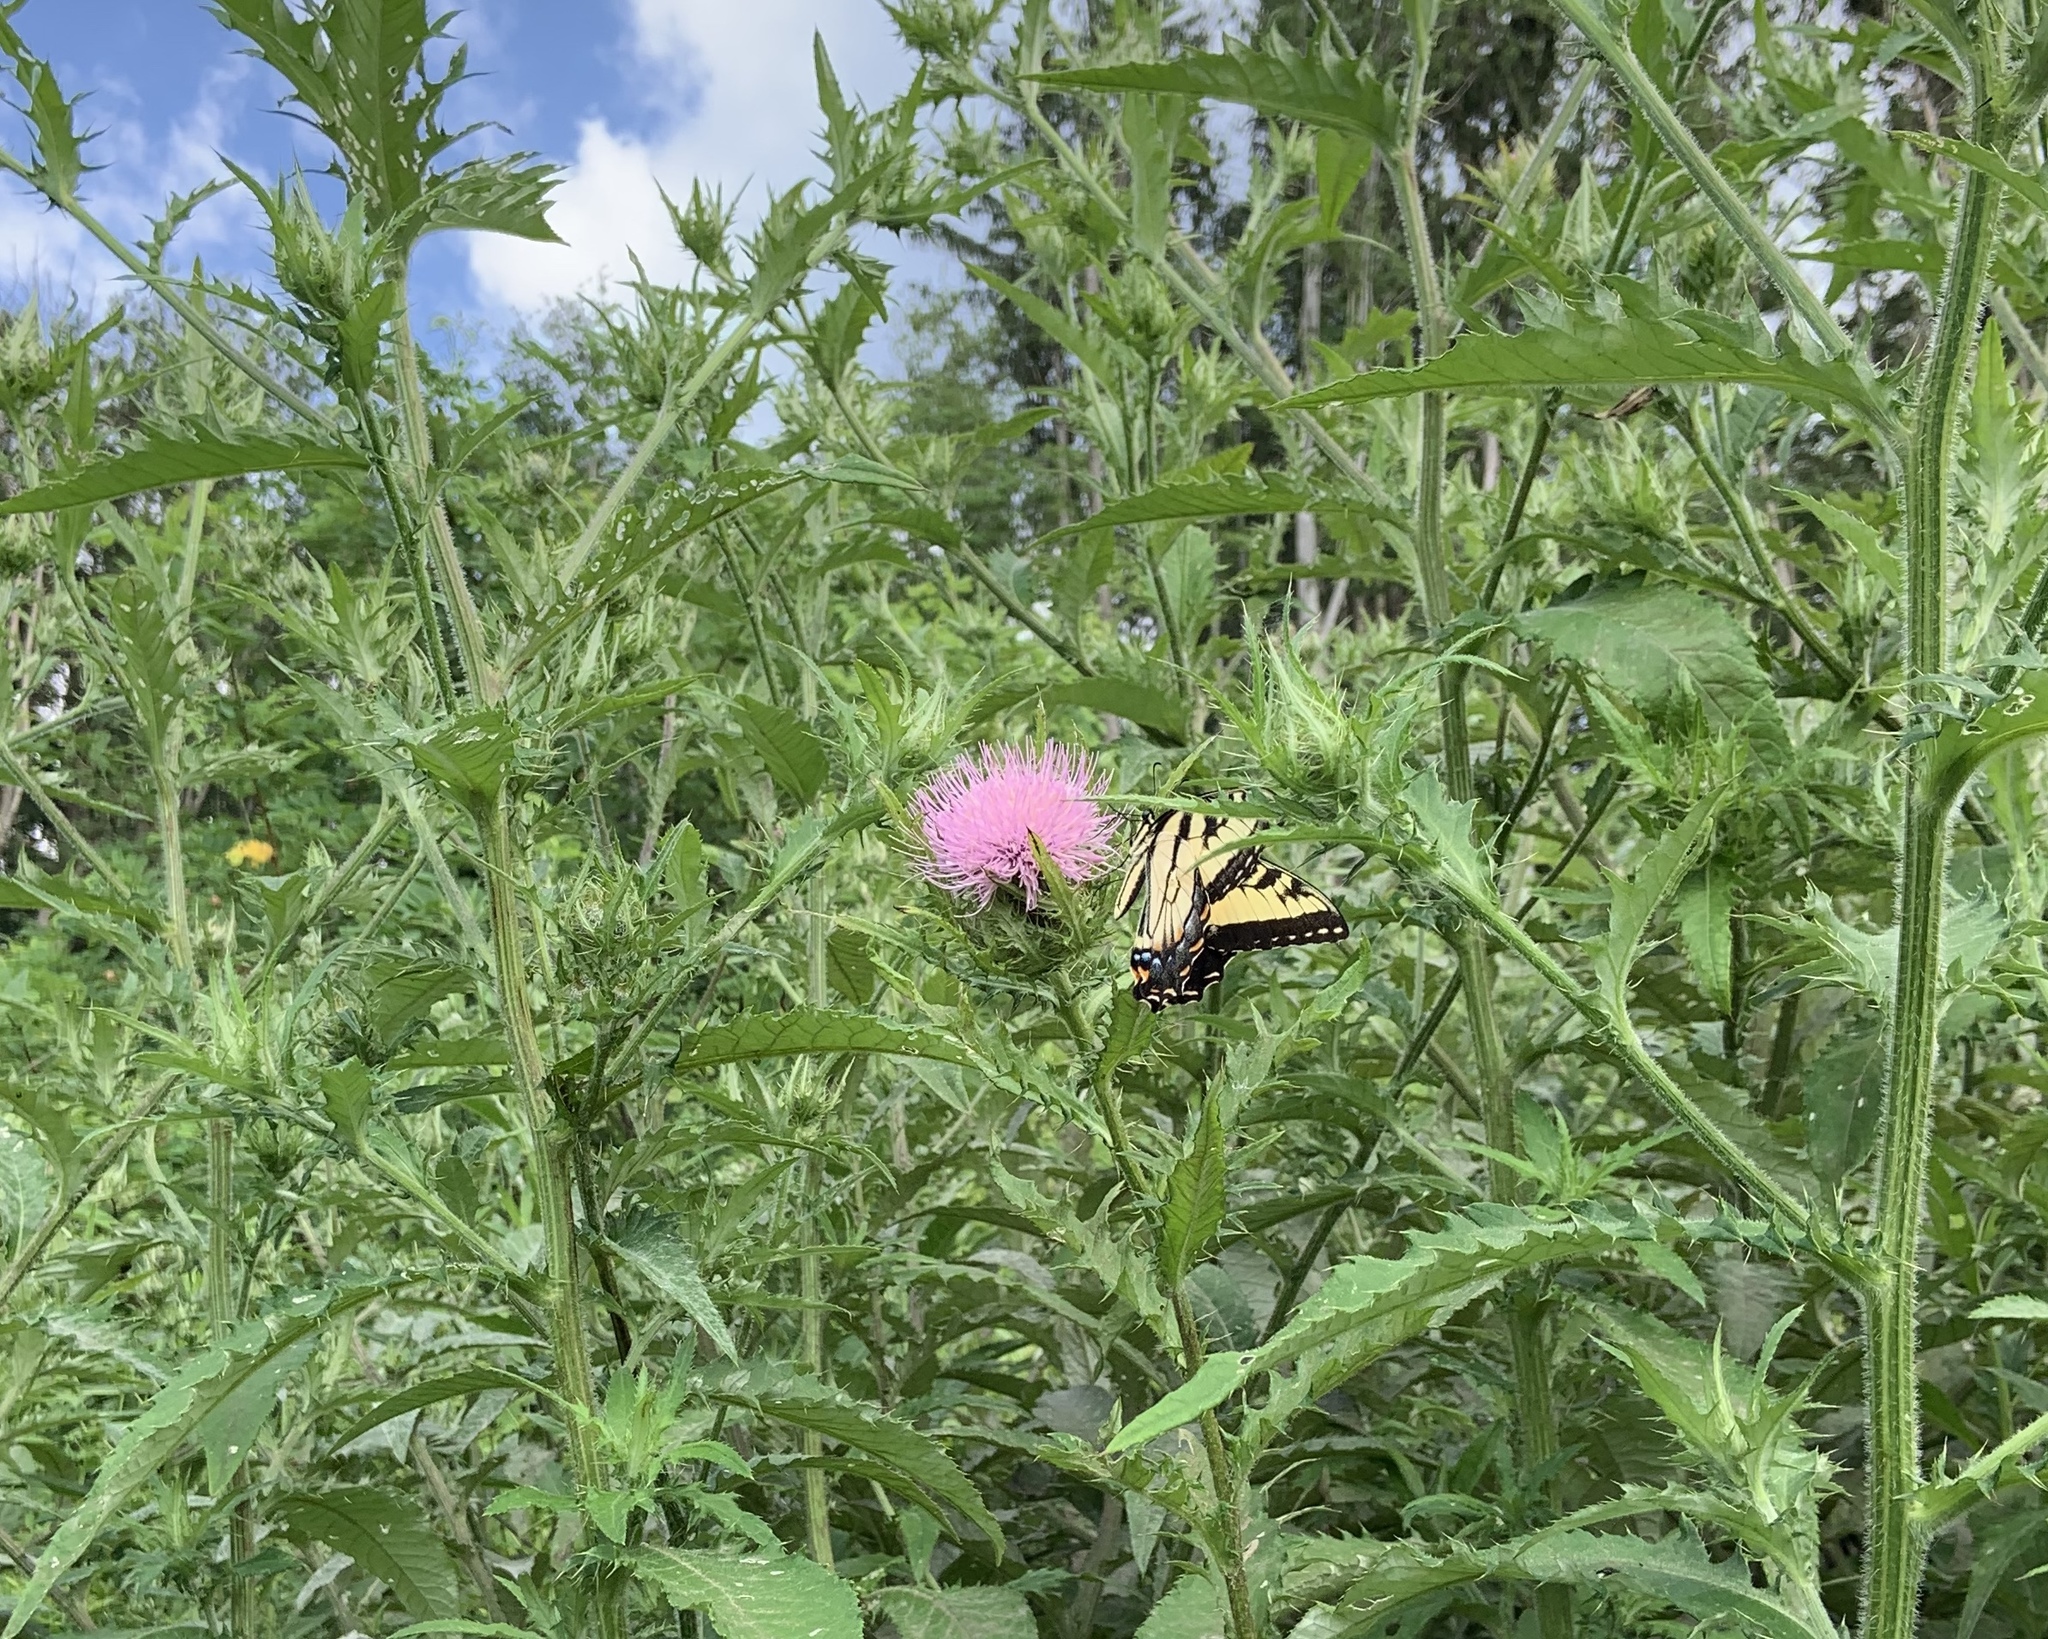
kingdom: Animalia
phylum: Arthropoda
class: Insecta
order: Lepidoptera
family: Papilionidae
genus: Papilio
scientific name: Papilio glaucus
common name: Tiger swallowtail
